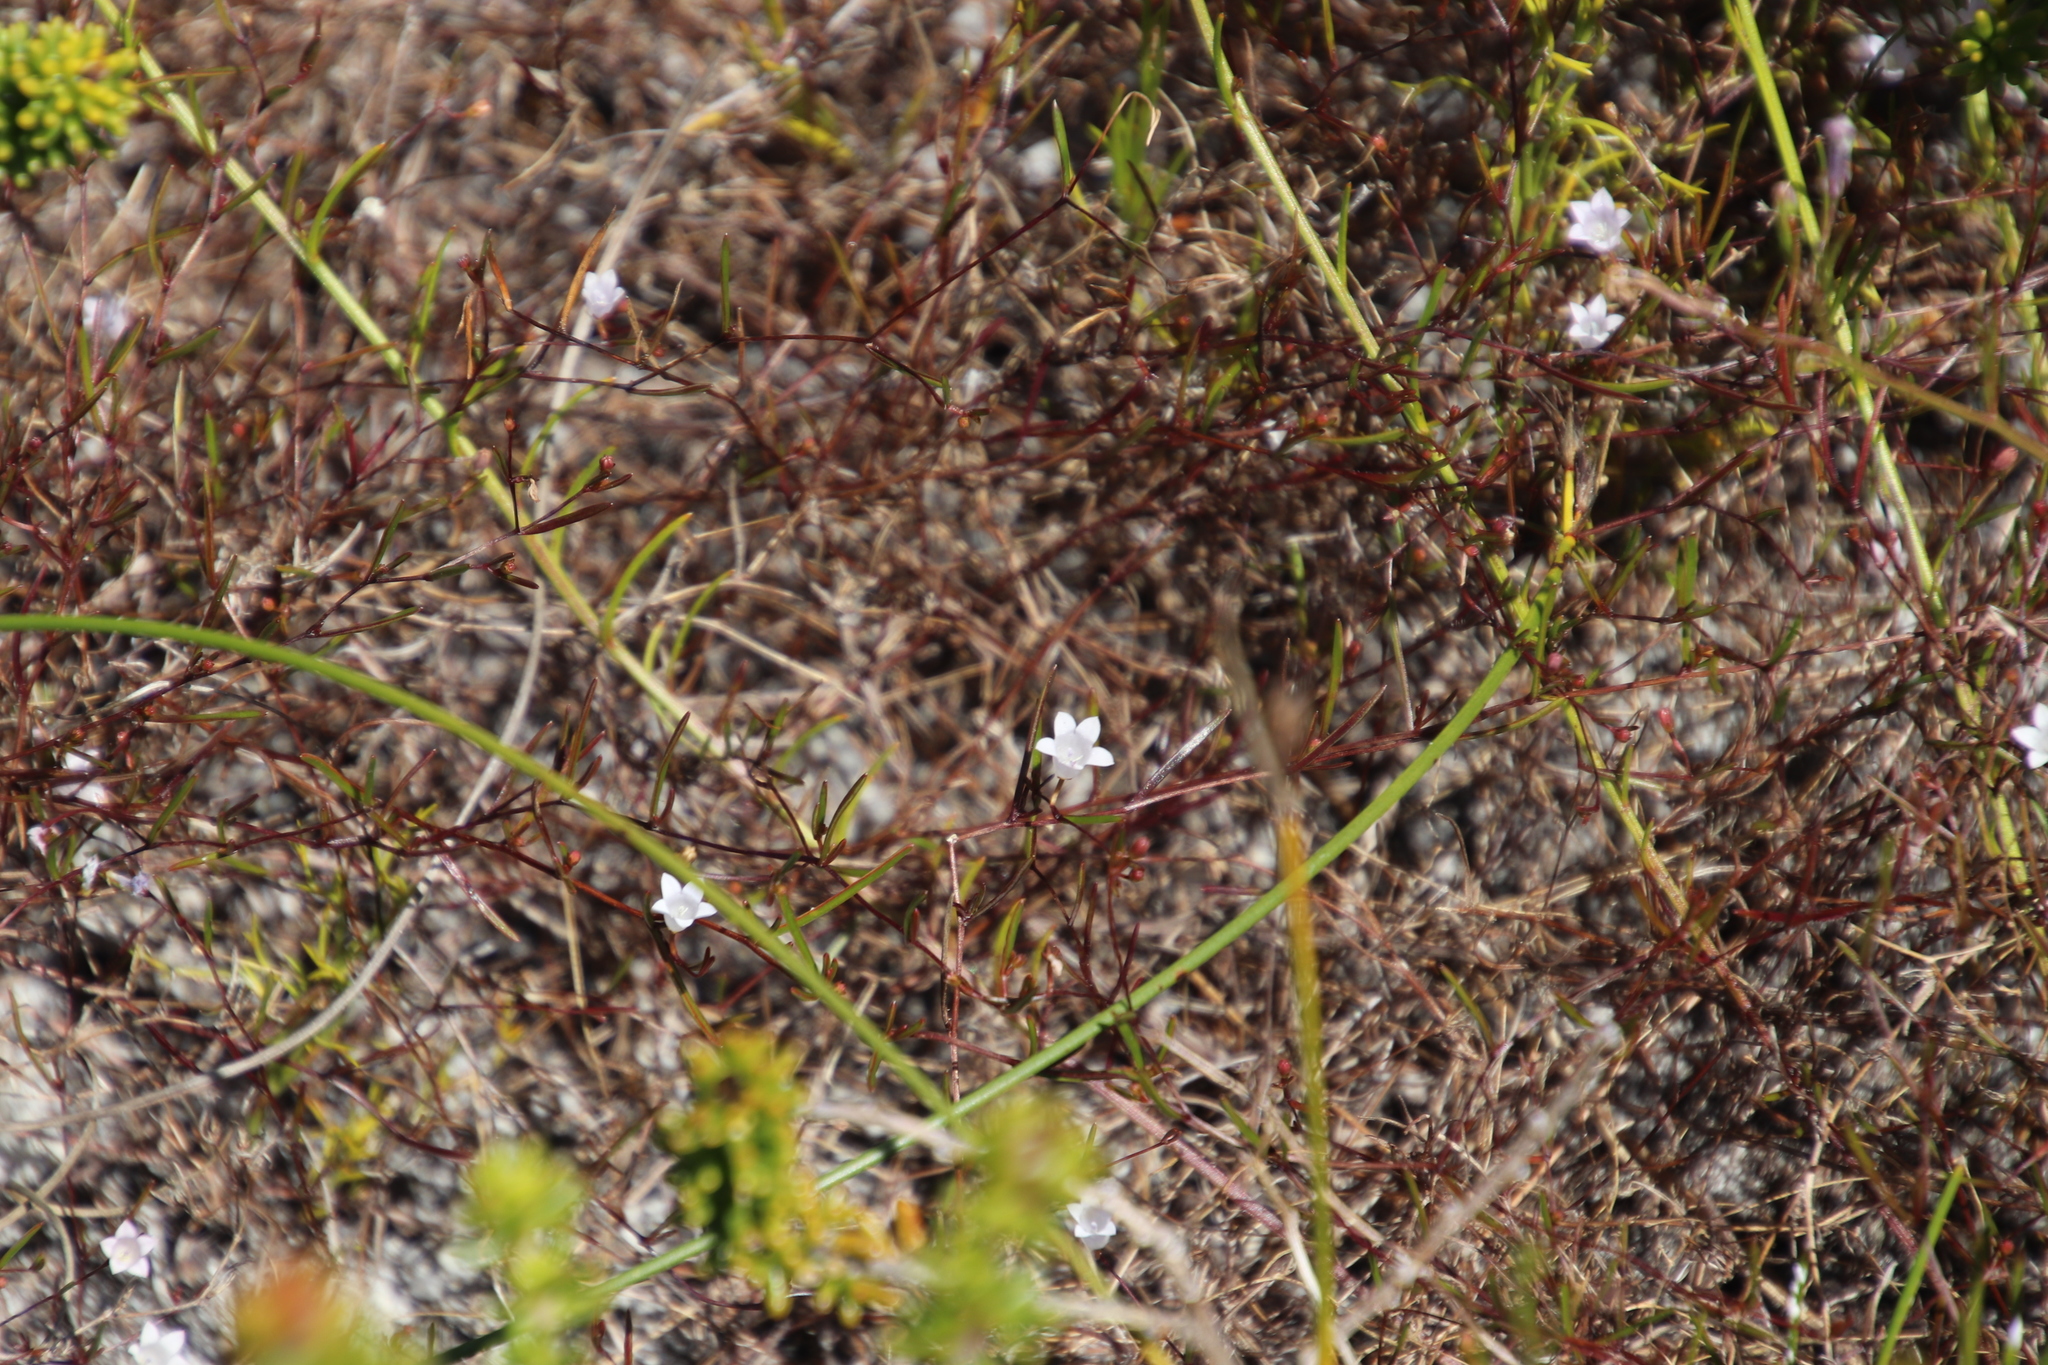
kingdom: Plantae
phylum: Tracheophyta
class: Magnoliopsida
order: Asterales
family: Campanulaceae
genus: Prismatocarpus
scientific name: Prismatocarpus sessilis
